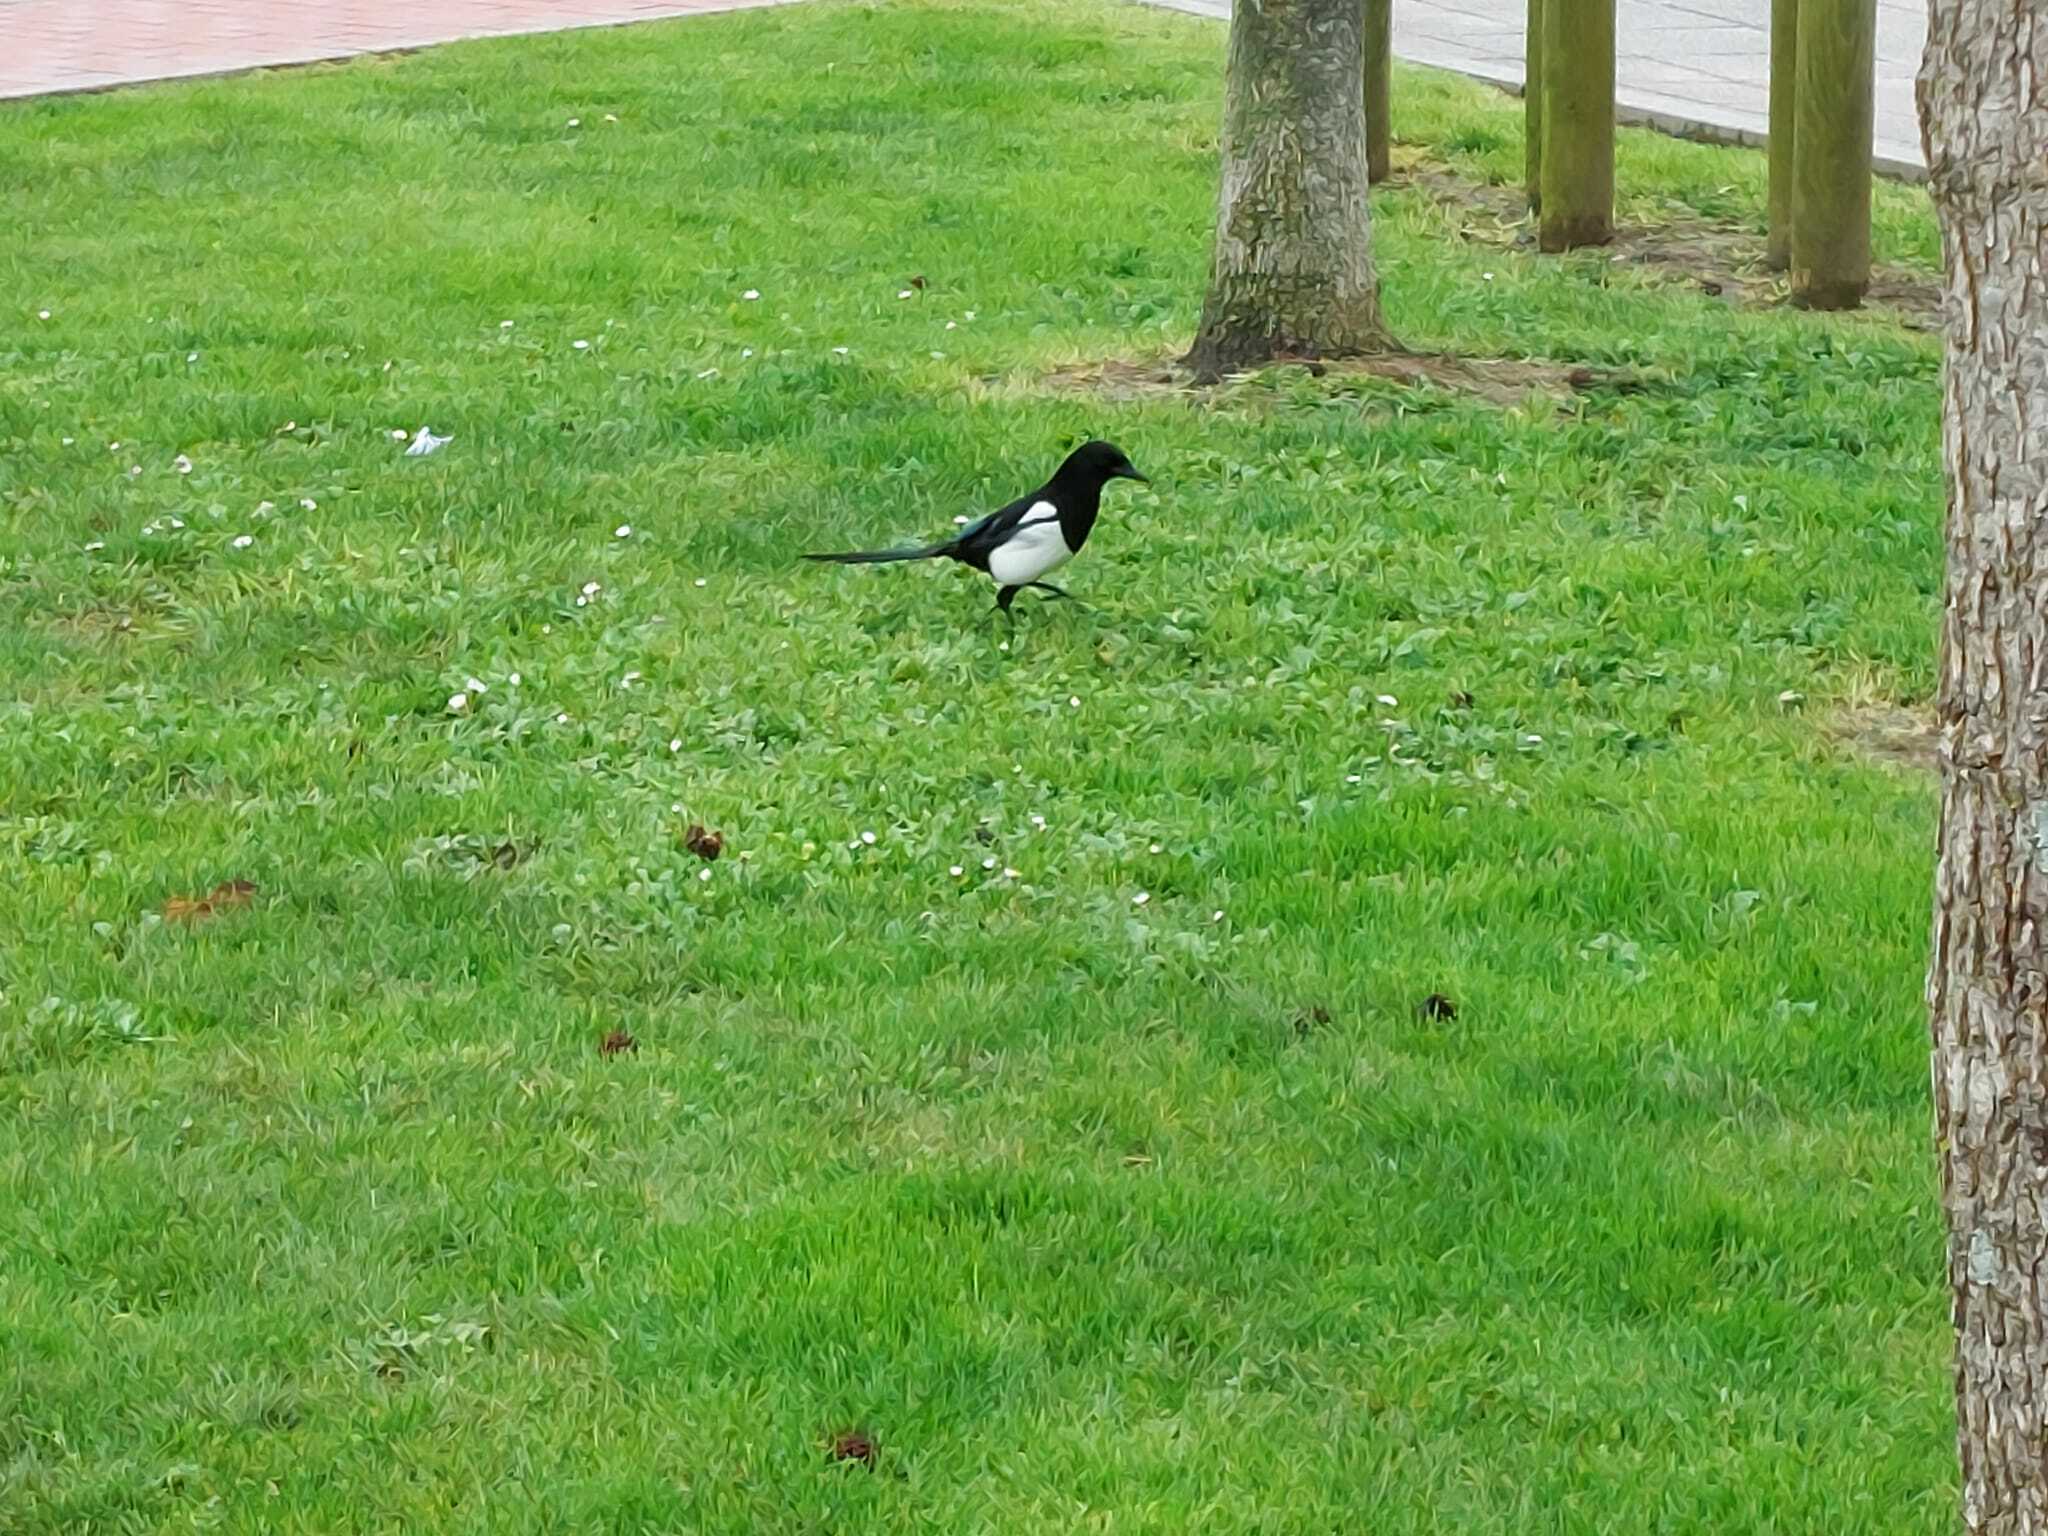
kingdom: Animalia
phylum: Chordata
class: Aves
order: Passeriformes
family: Corvidae
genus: Pica
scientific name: Pica pica
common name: Eurasian magpie
